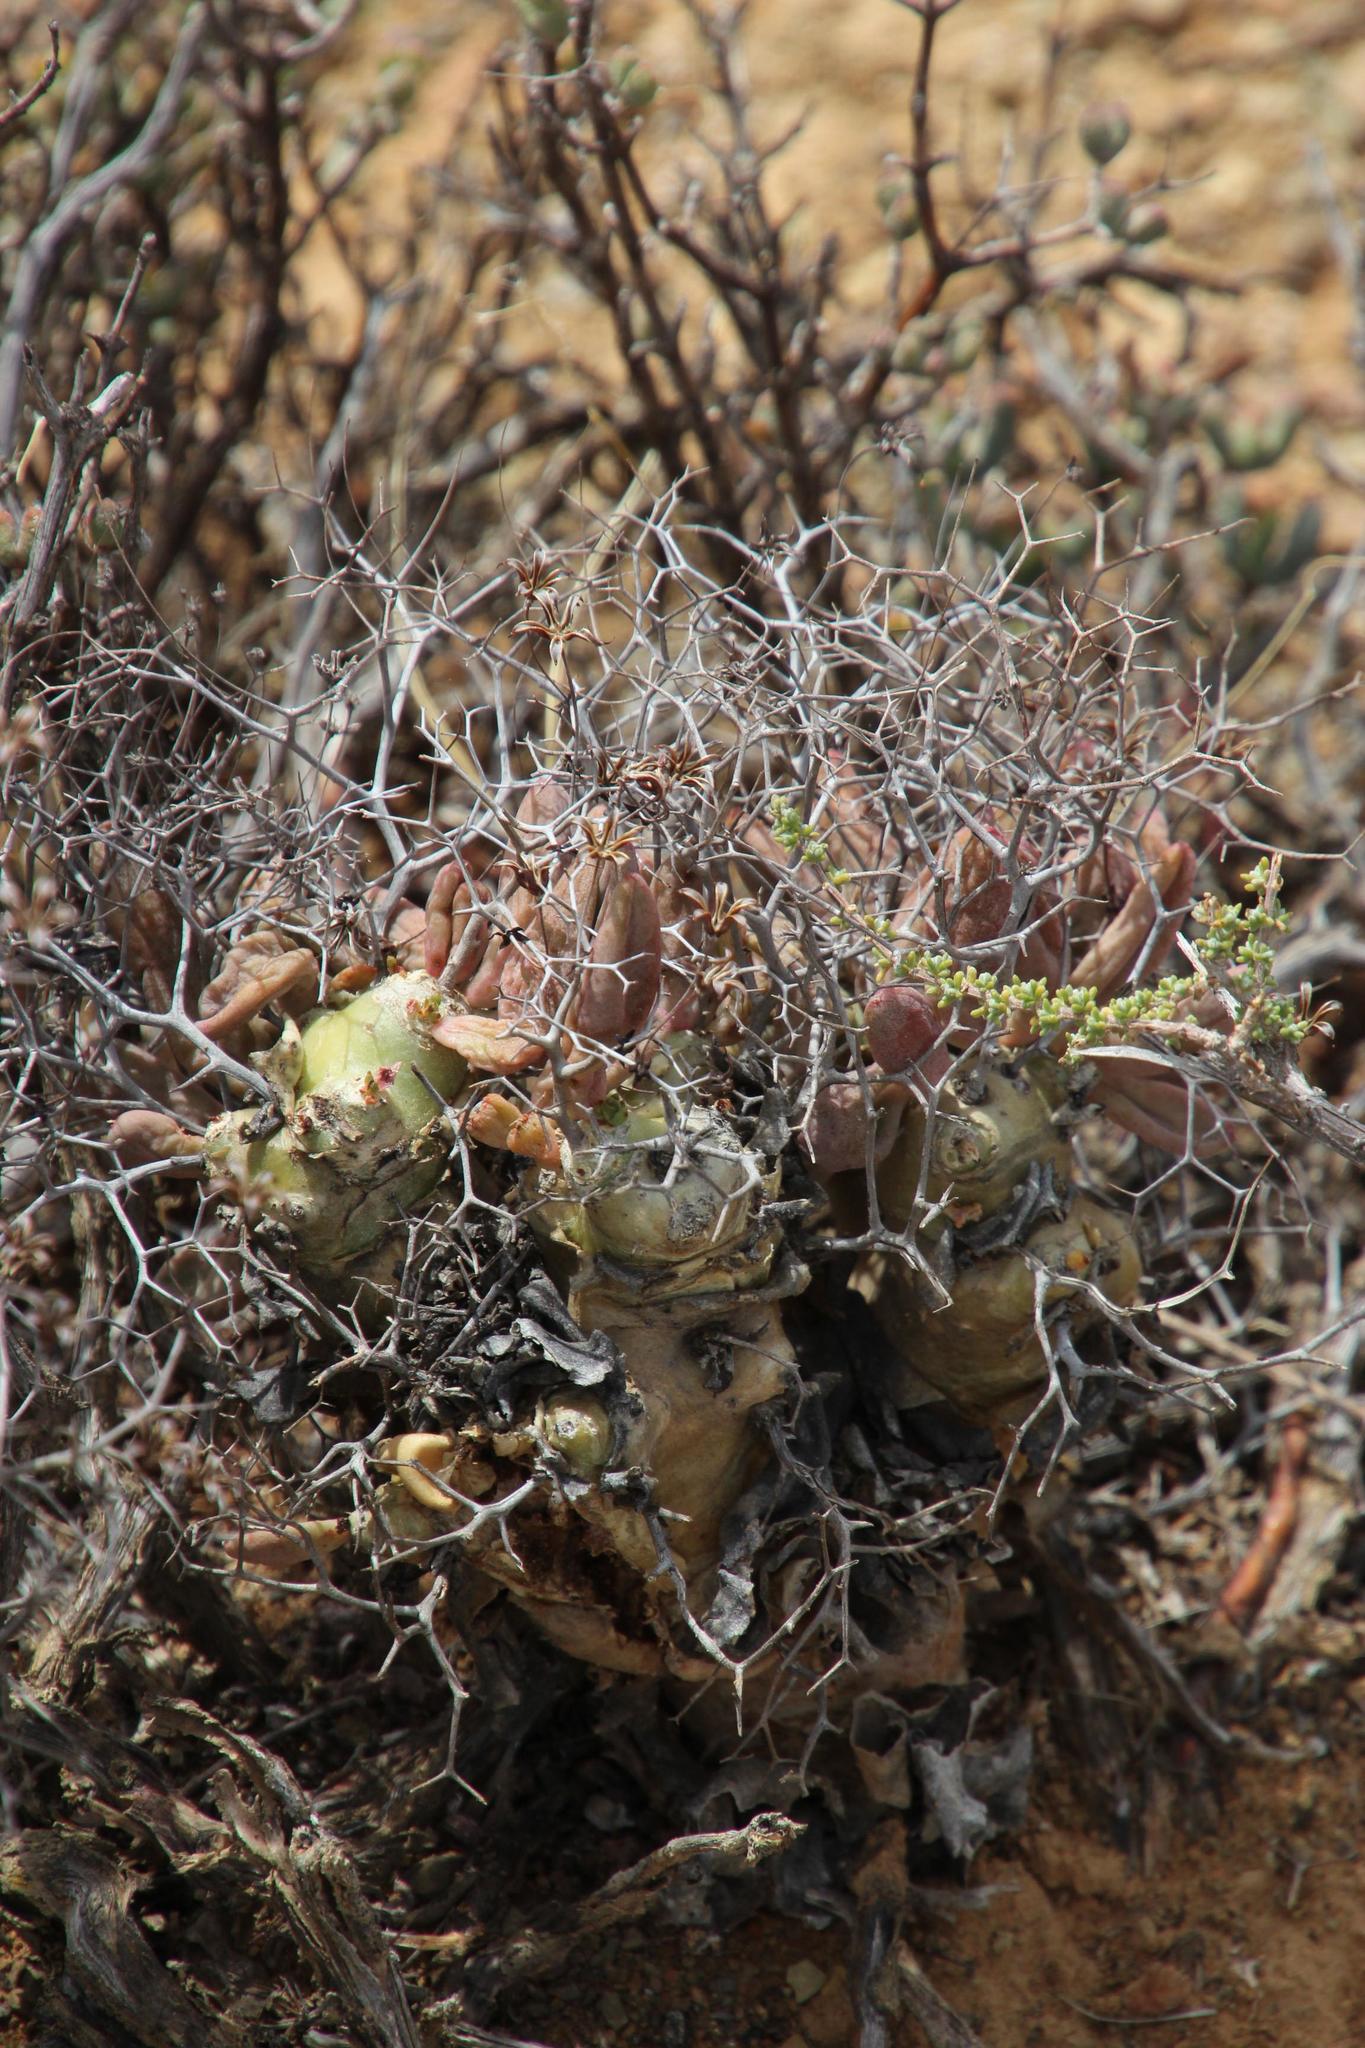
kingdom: Plantae
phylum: Tracheophyta
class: Magnoliopsida
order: Saxifragales
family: Crassulaceae
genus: Tylecodon
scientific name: Tylecodon reticulatus
